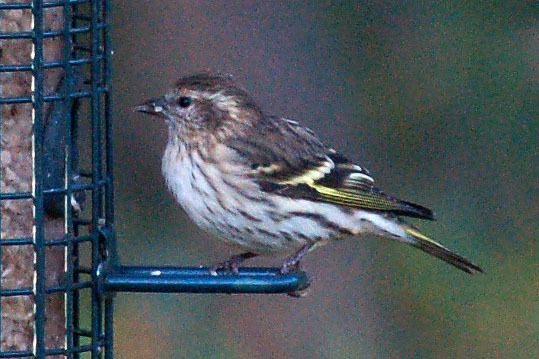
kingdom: Animalia
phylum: Chordata
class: Aves
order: Passeriformes
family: Fringillidae
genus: Spinus
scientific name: Spinus pinus
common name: Pine siskin
